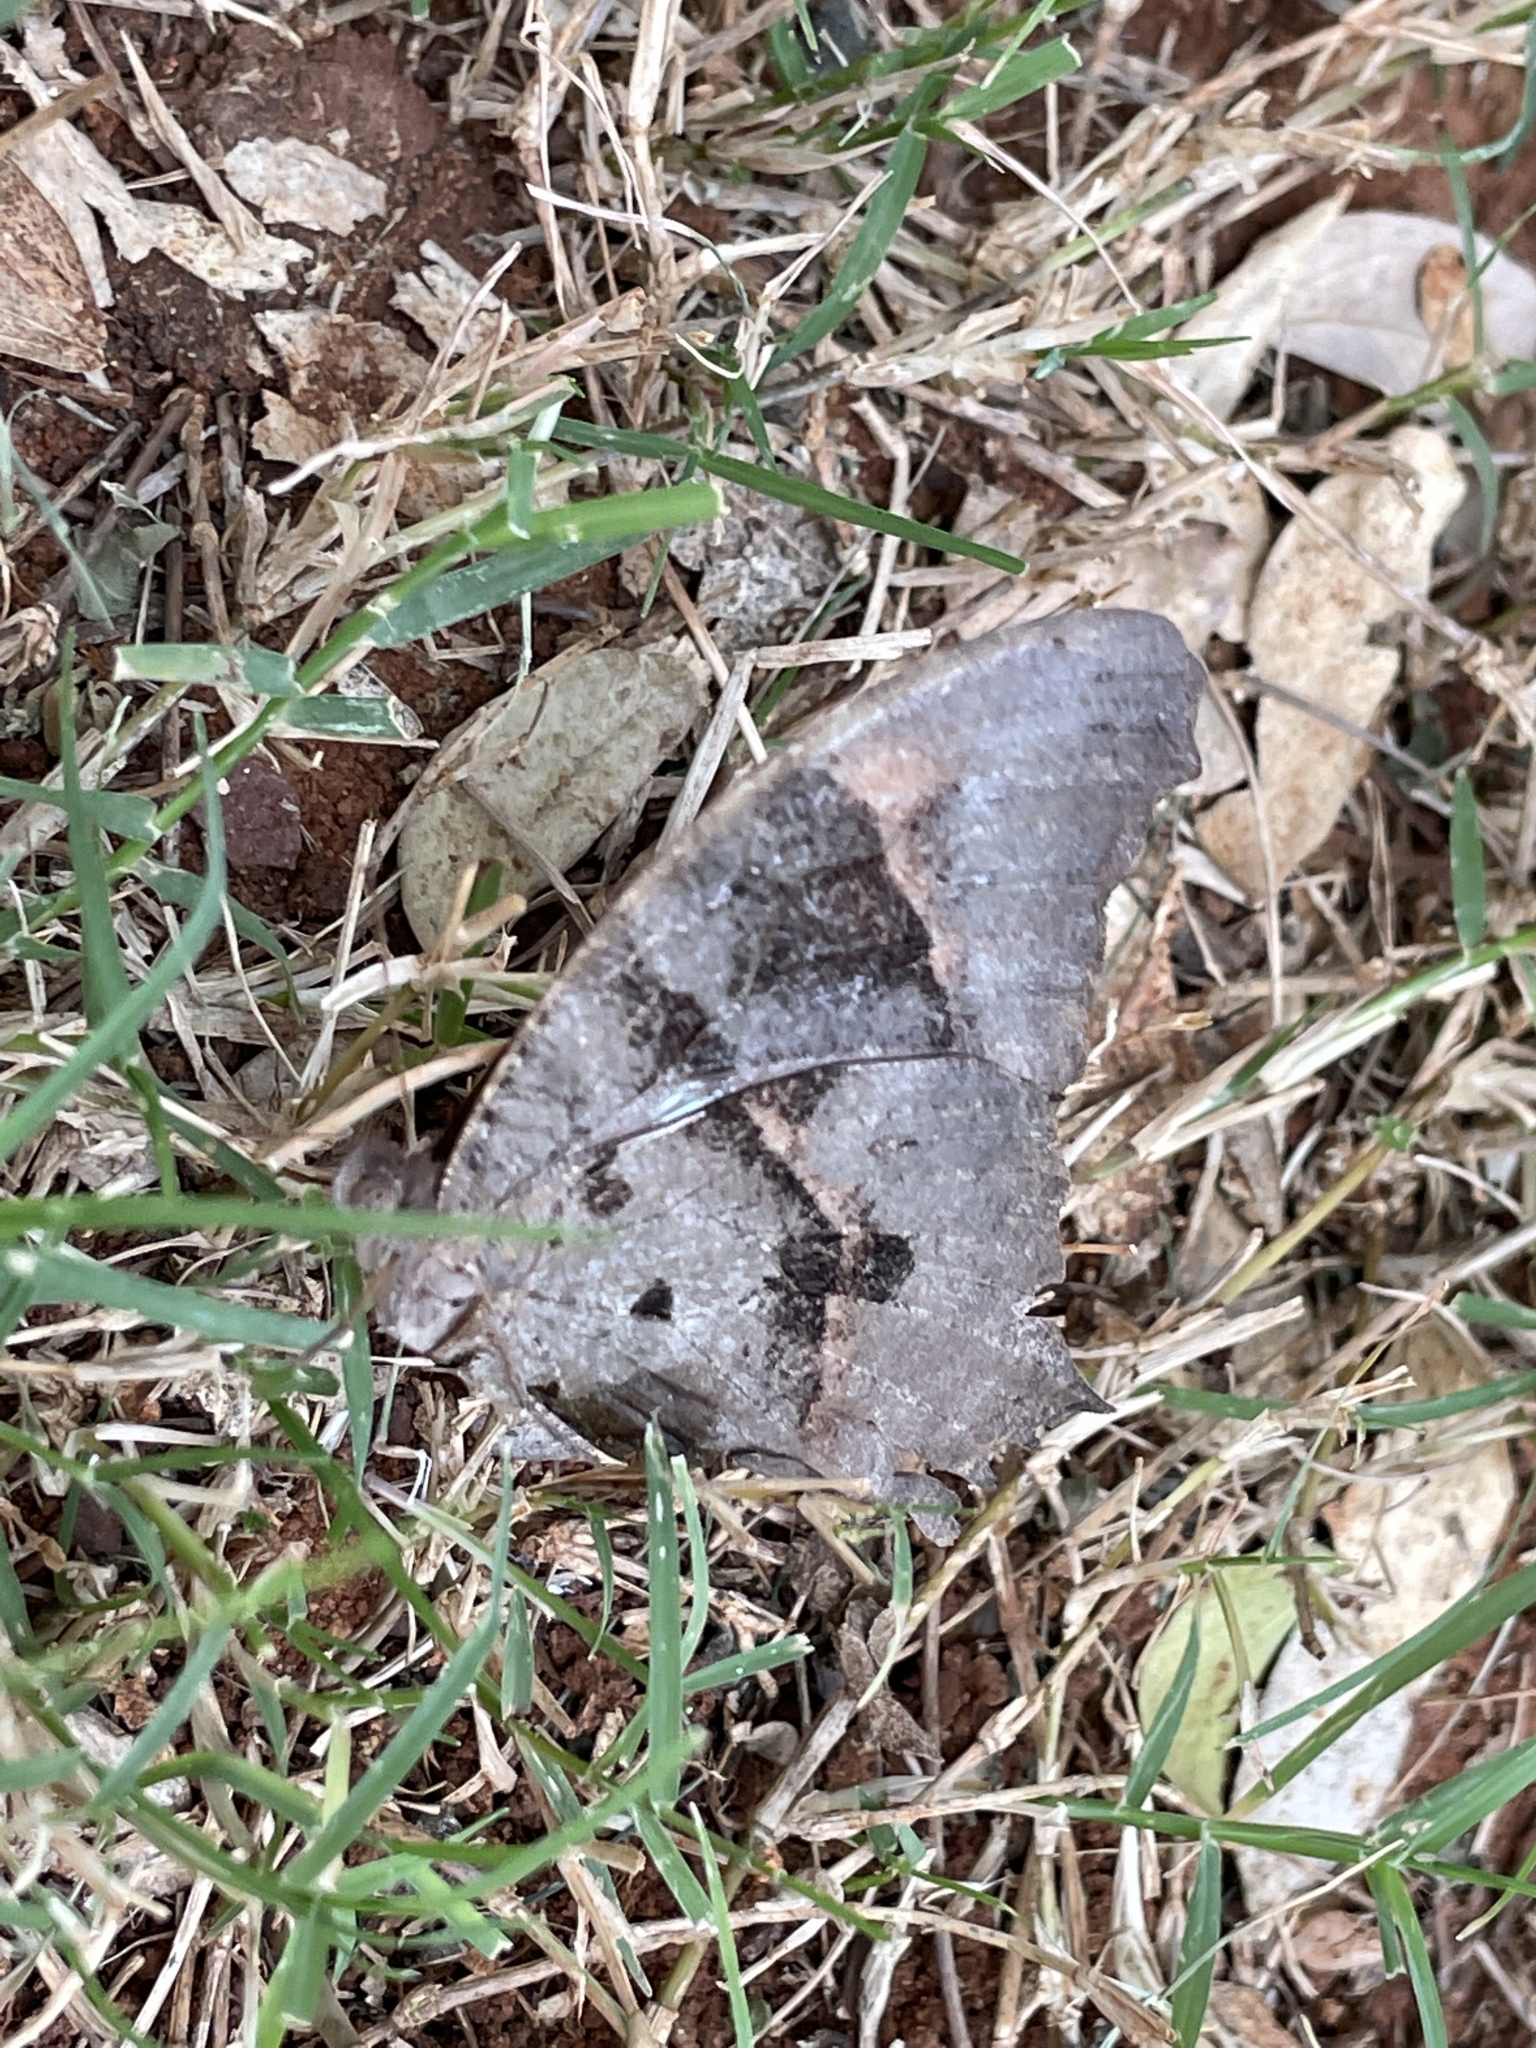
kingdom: Animalia
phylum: Arthropoda
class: Insecta
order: Lepidoptera
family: Nymphalidae
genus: Melanitis
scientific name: Melanitis leda
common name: Twilight brown
